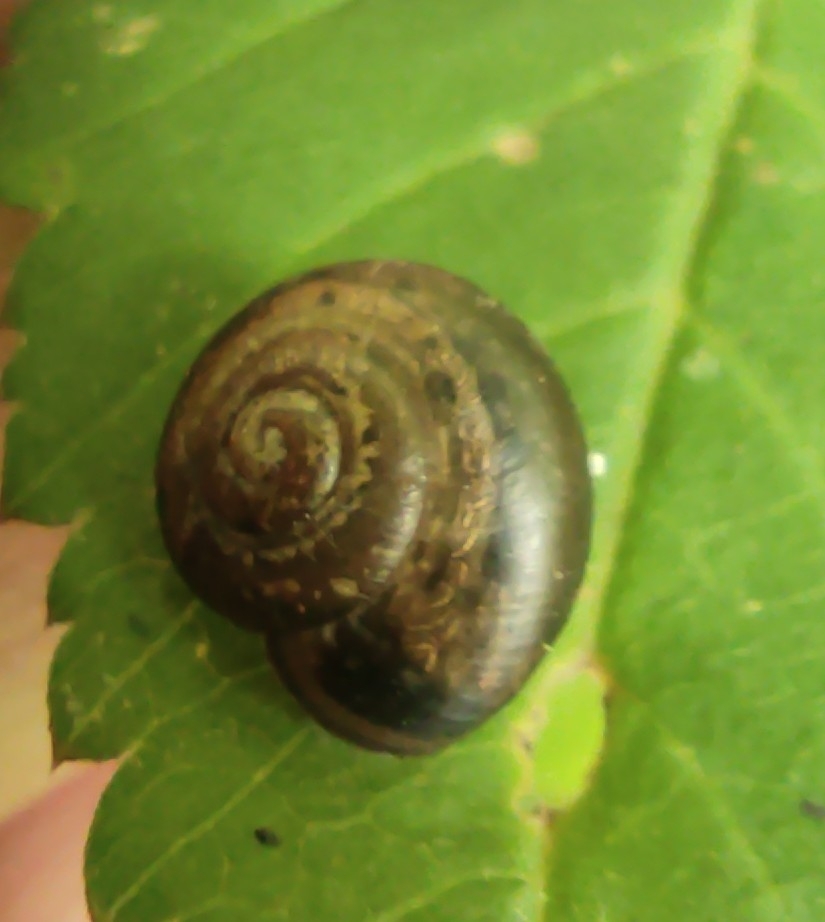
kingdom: Animalia
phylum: Mollusca
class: Gastropoda
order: Stylommatophora
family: Camaenidae
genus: Fruticicola
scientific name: Fruticicola fruticum
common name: Bush snail
